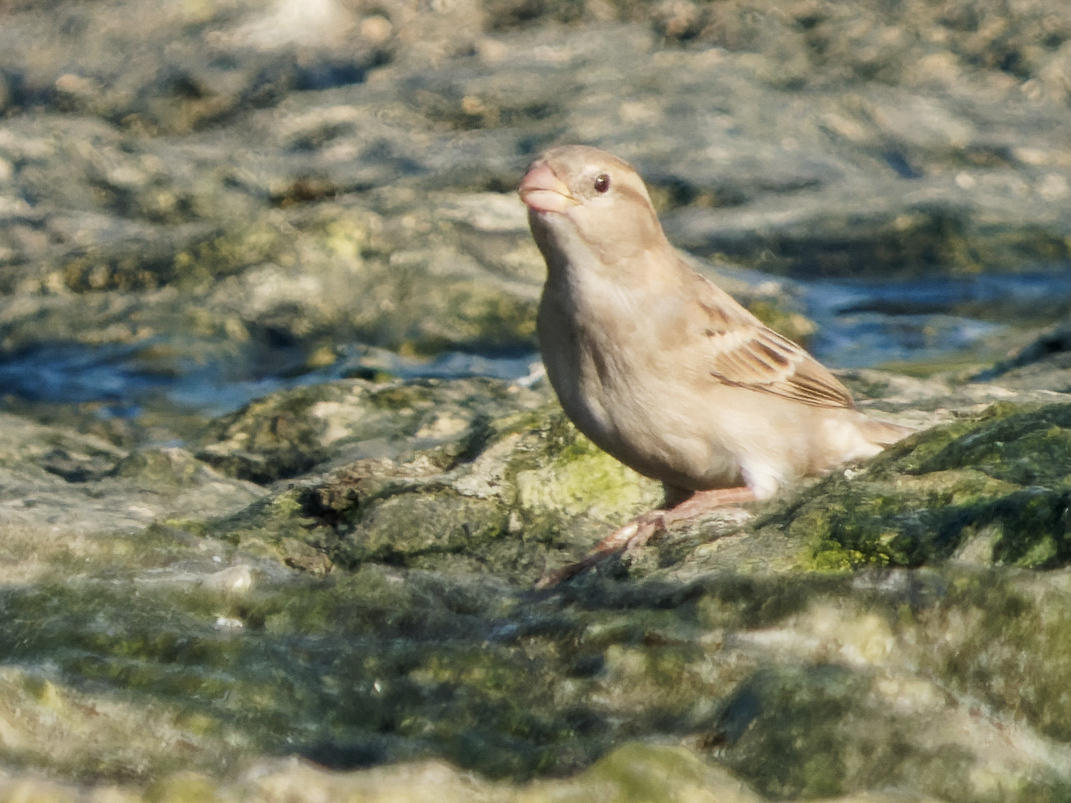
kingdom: Animalia
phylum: Chordata
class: Aves
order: Passeriformes
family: Passeridae
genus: Passer
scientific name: Passer domesticus
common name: House sparrow
